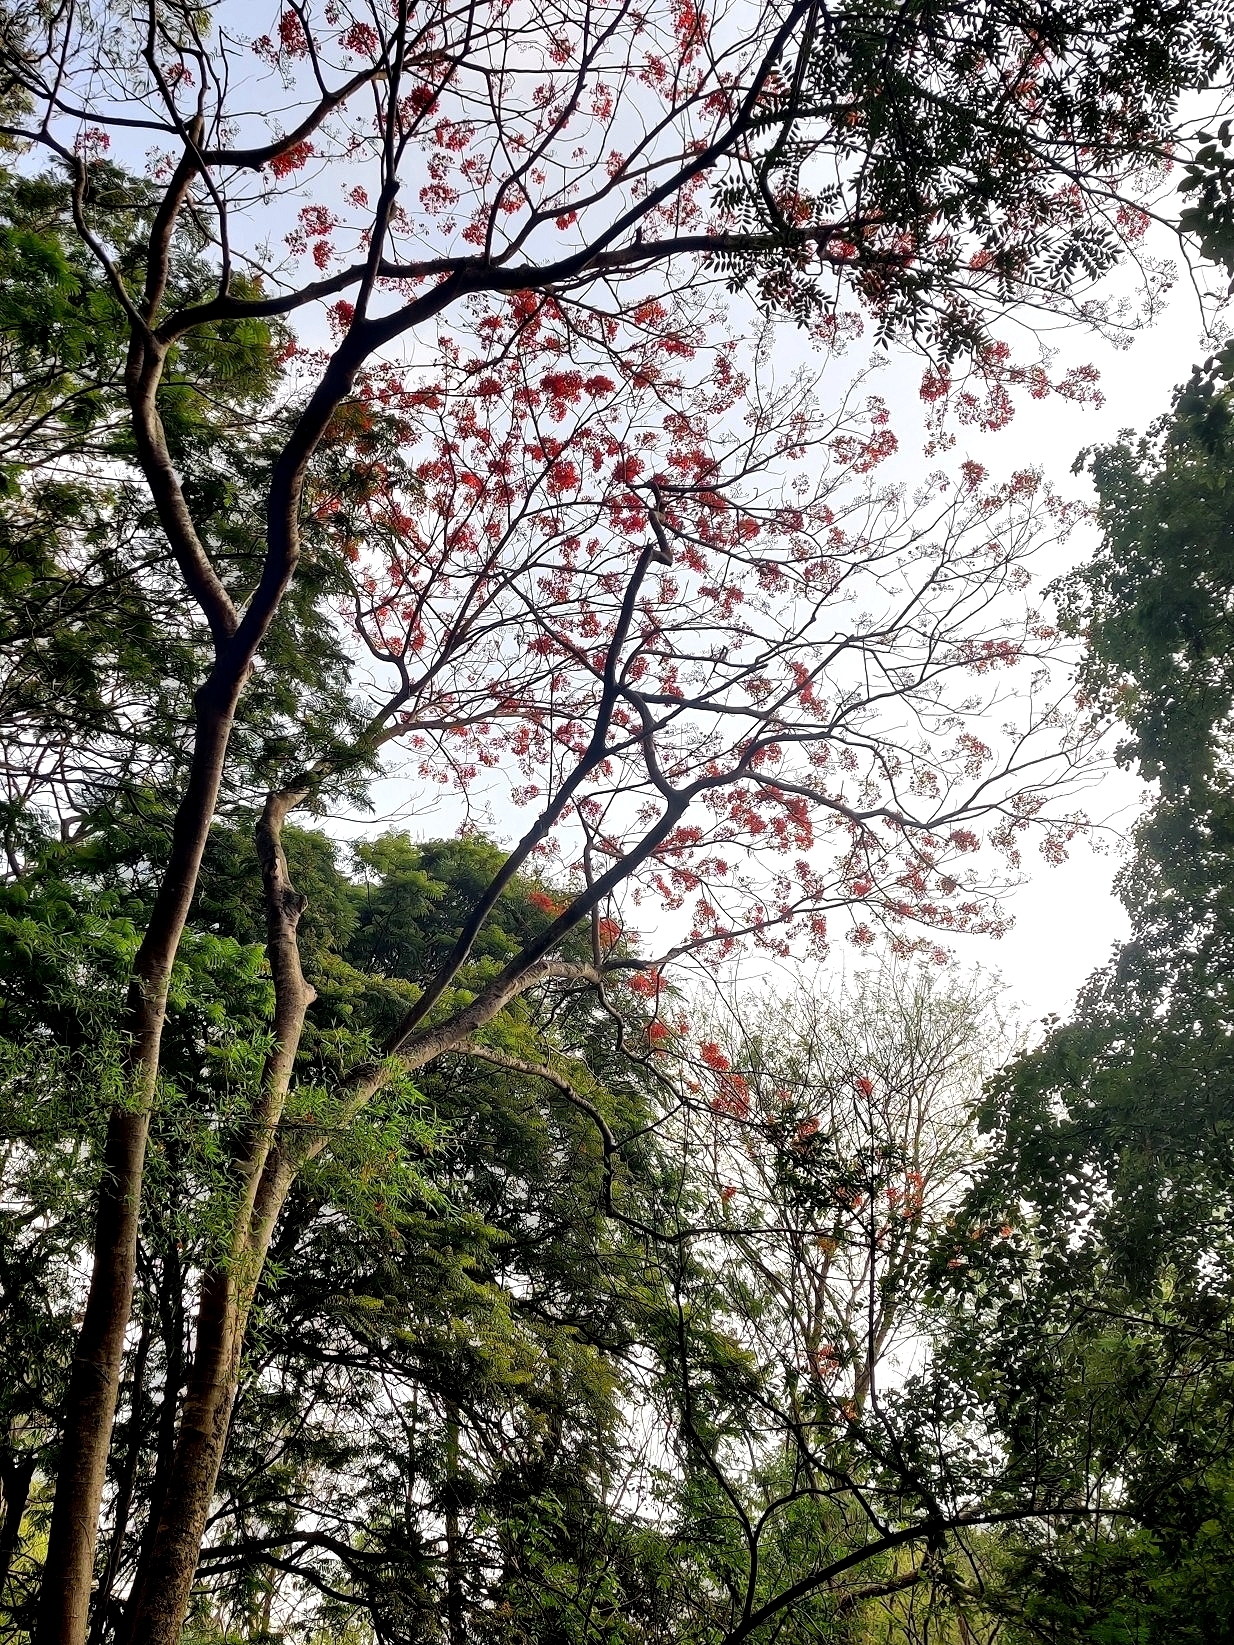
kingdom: Plantae
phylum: Tracheophyta
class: Magnoliopsida
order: Fabales
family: Fabaceae
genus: Delonix
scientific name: Delonix regia
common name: Royal poinciana
